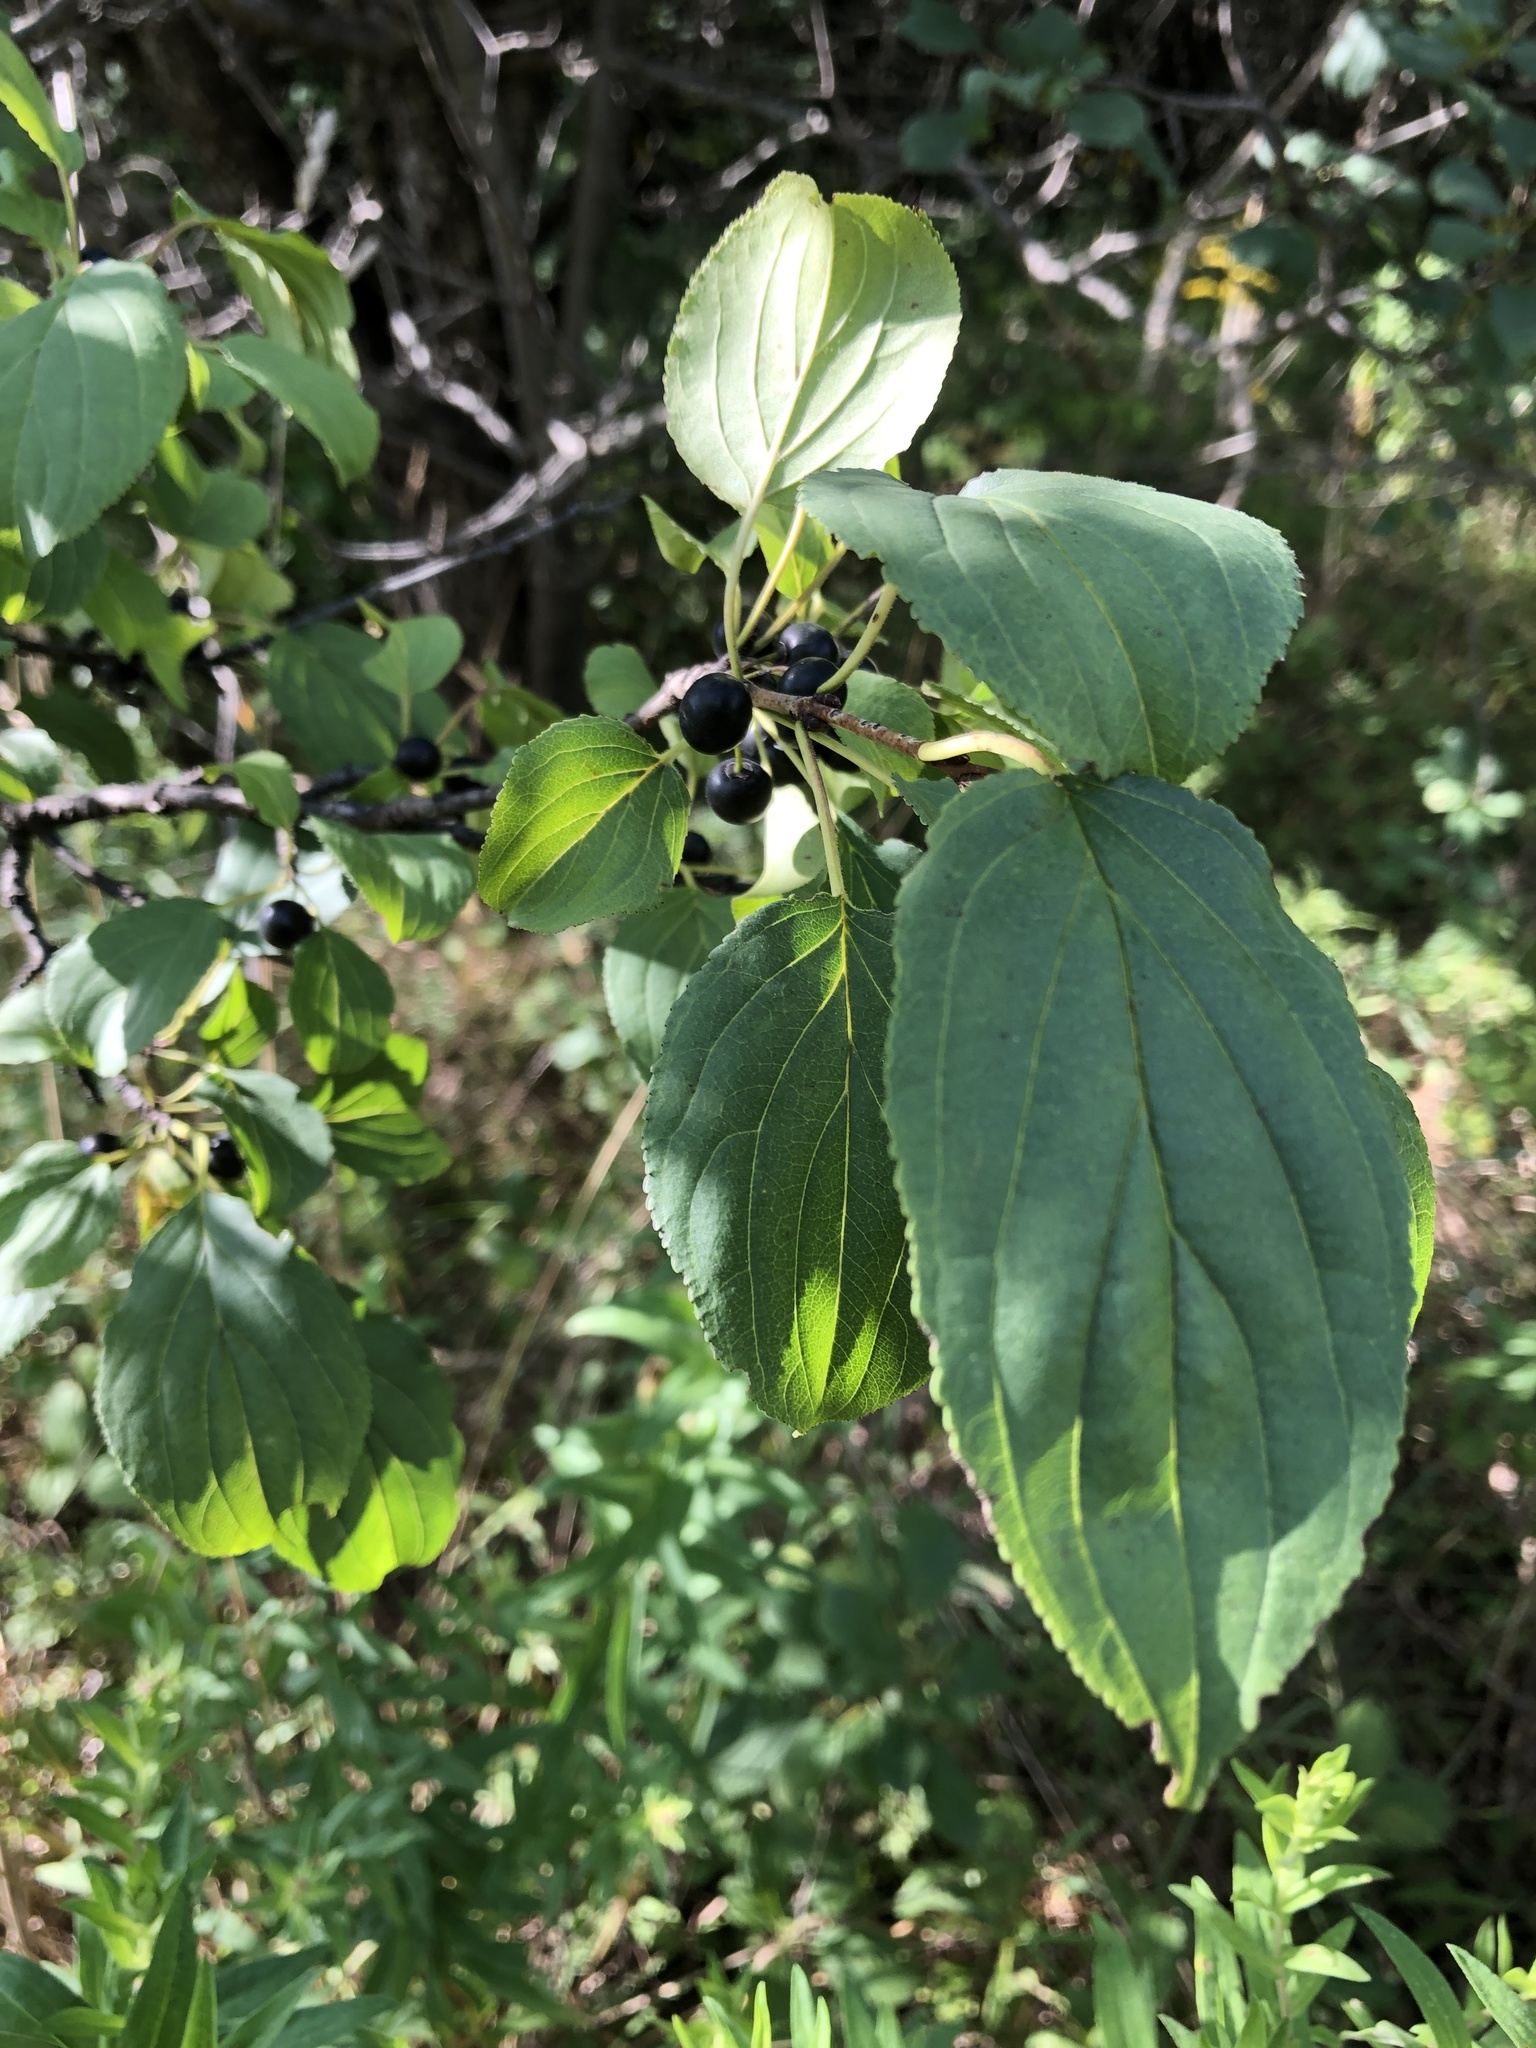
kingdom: Plantae
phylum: Tracheophyta
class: Magnoliopsida
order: Rosales
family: Rhamnaceae
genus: Rhamnus
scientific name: Rhamnus cathartica
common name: Common buckthorn
